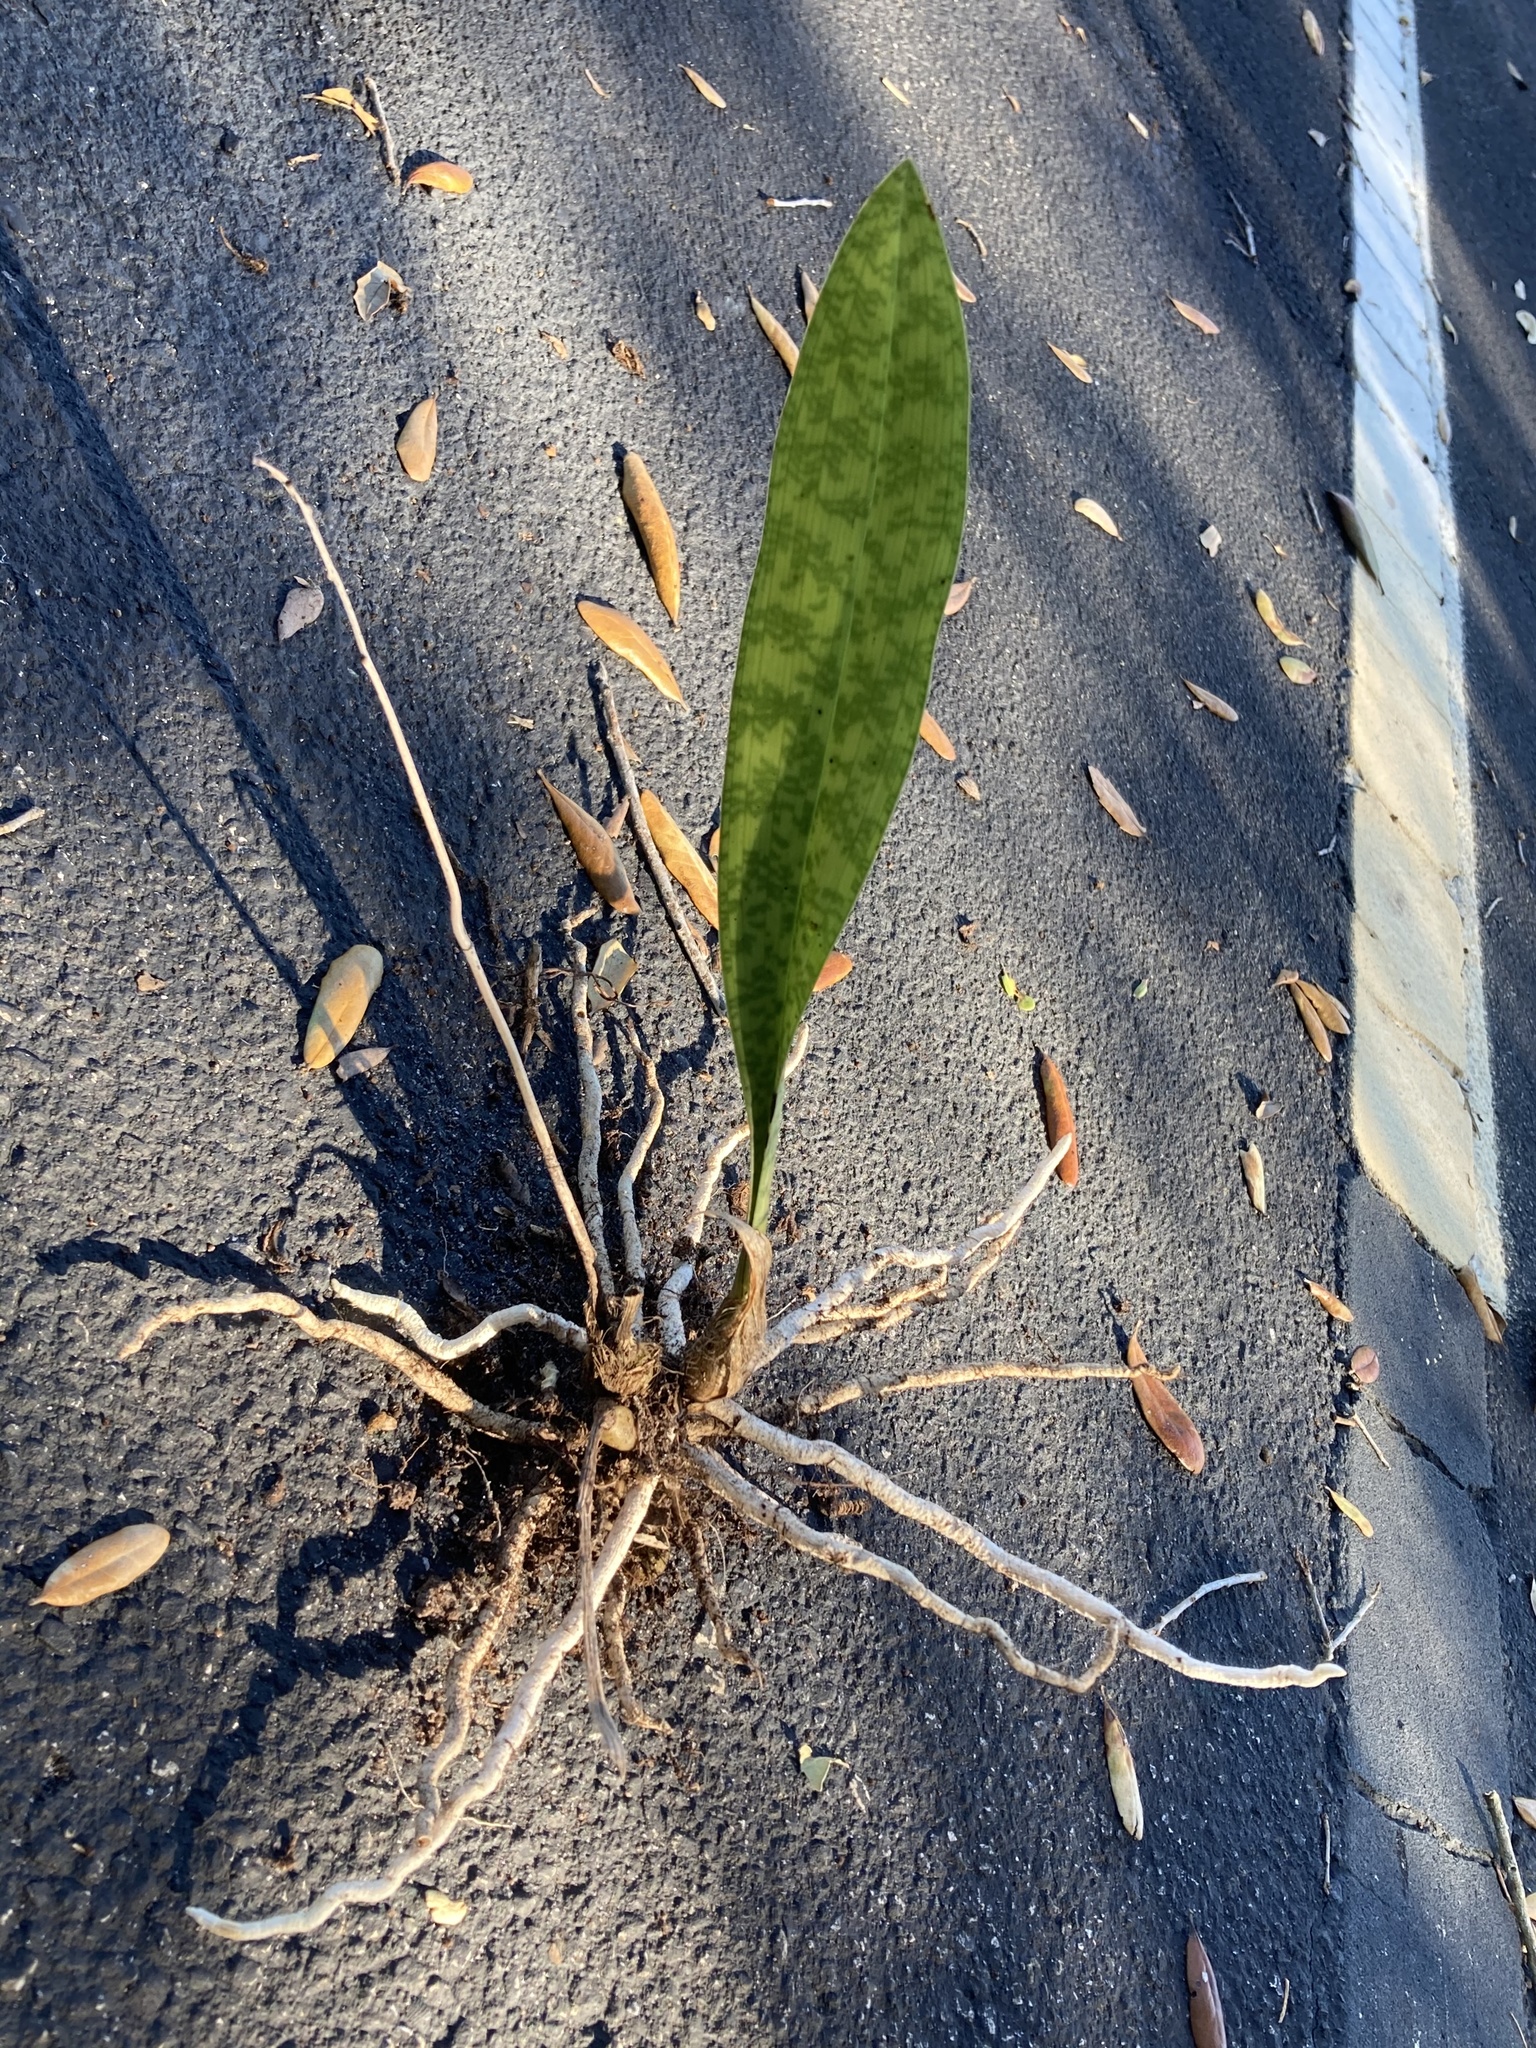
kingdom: Plantae
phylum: Tracheophyta
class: Liliopsida
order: Asparagales
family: Orchidaceae
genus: Eulophia
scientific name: Eulophia maculata
